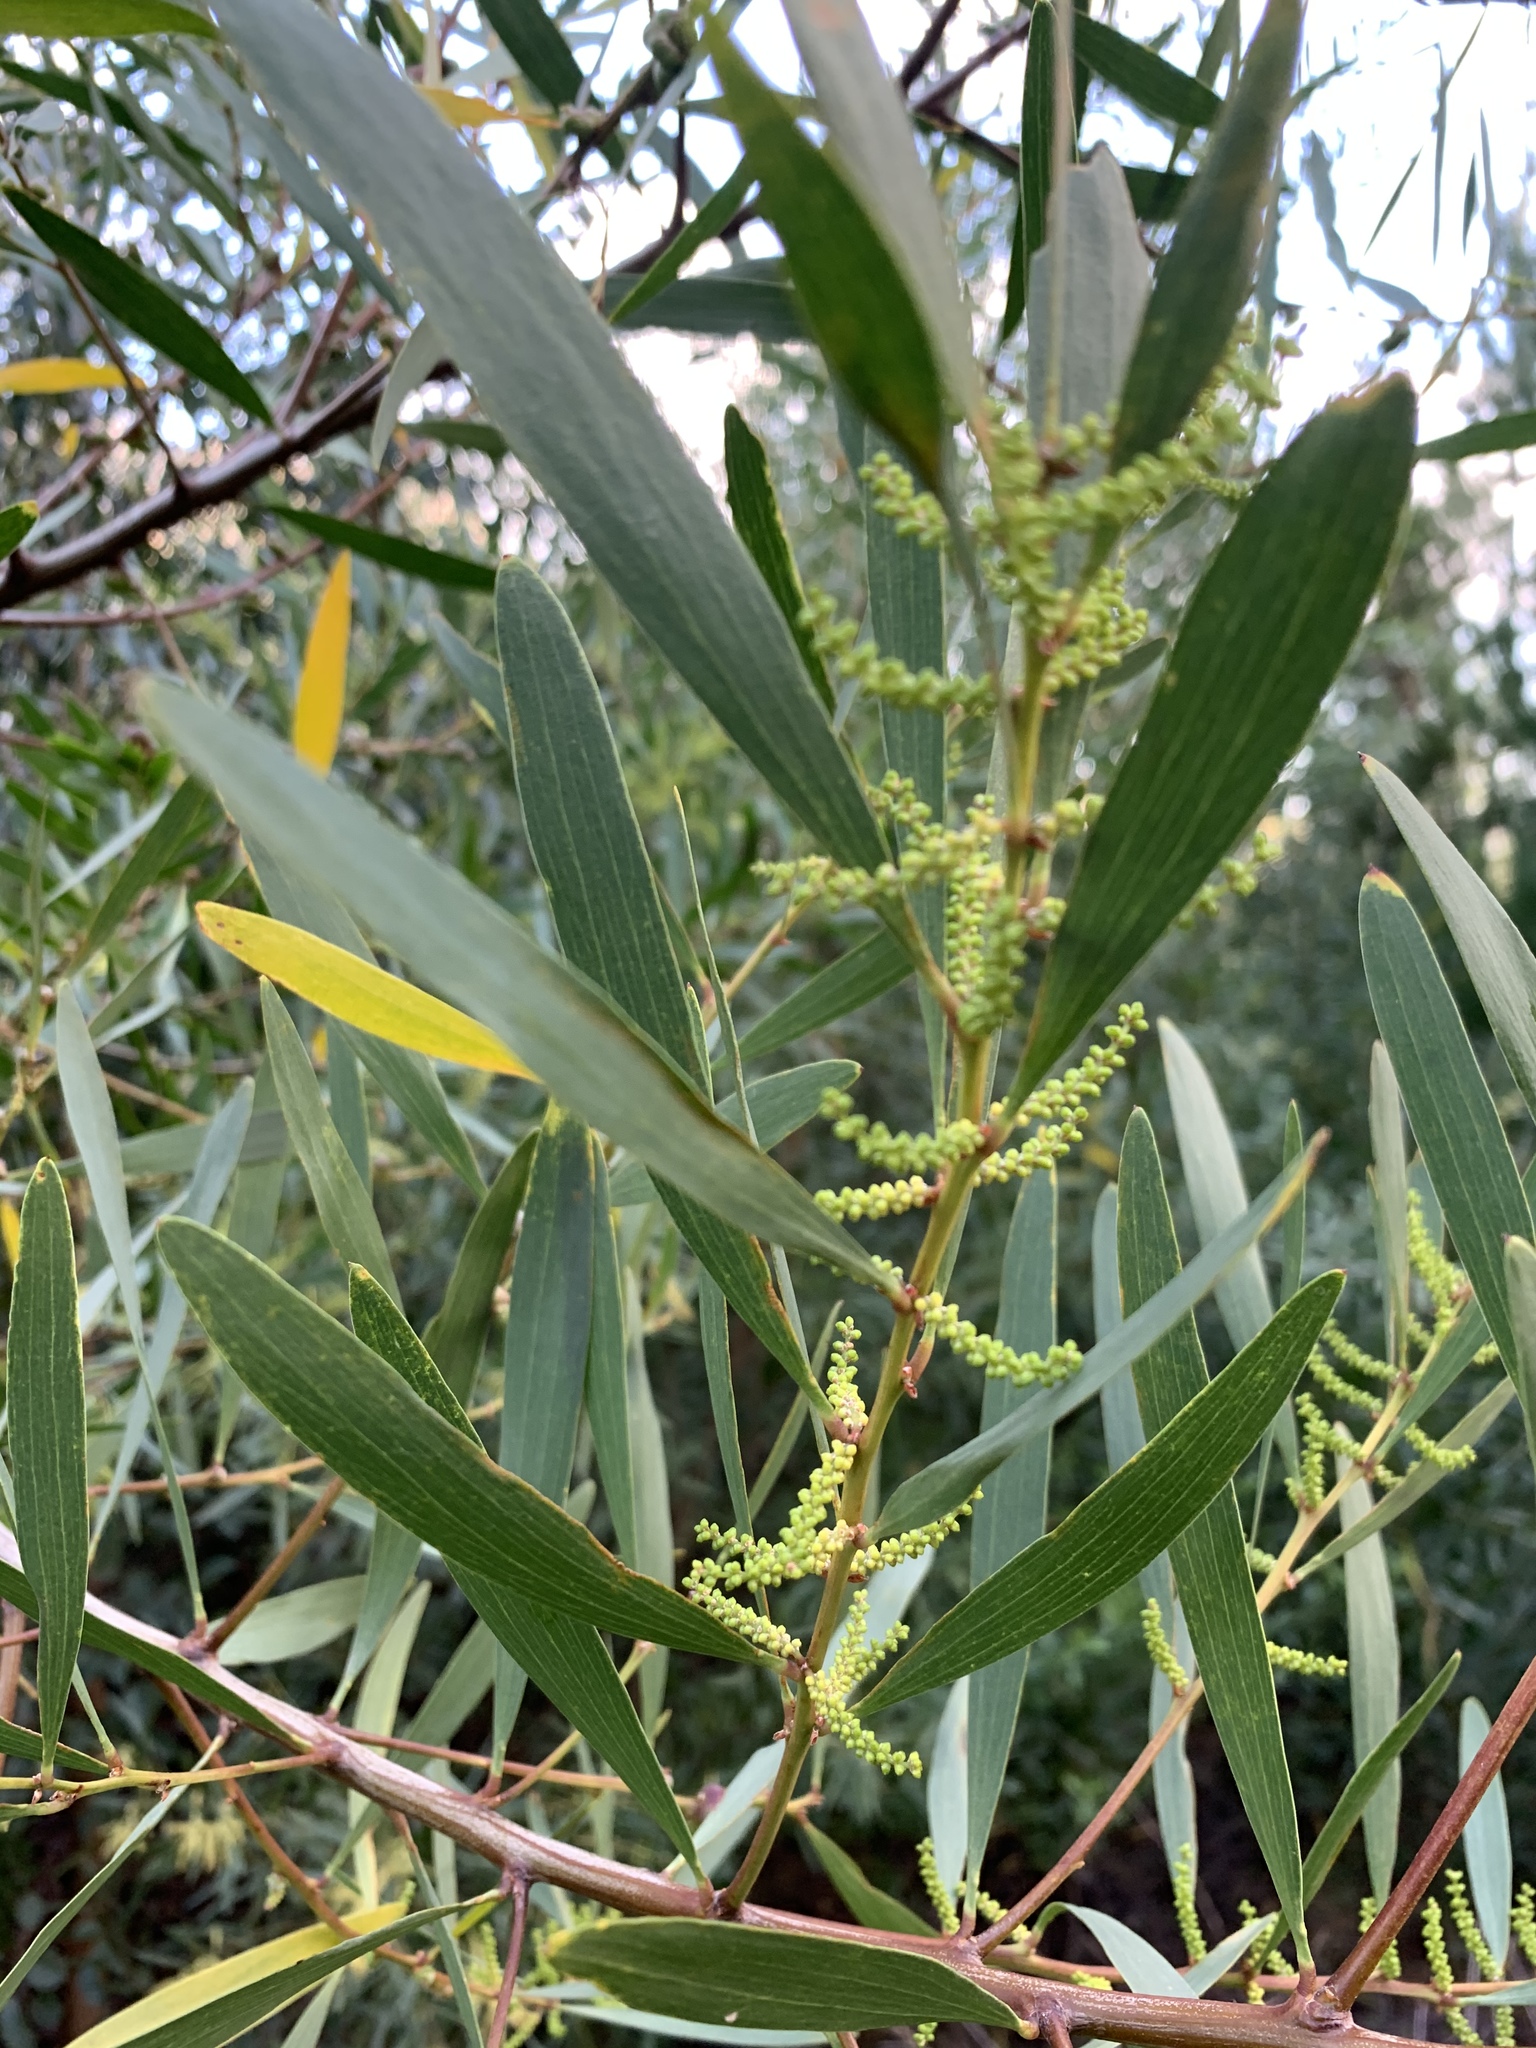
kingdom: Plantae
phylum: Tracheophyta
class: Magnoliopsida
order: Fabales
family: Fabaceae
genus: Acacia
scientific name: Acacia longifolia
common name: Sydney golden wattle
